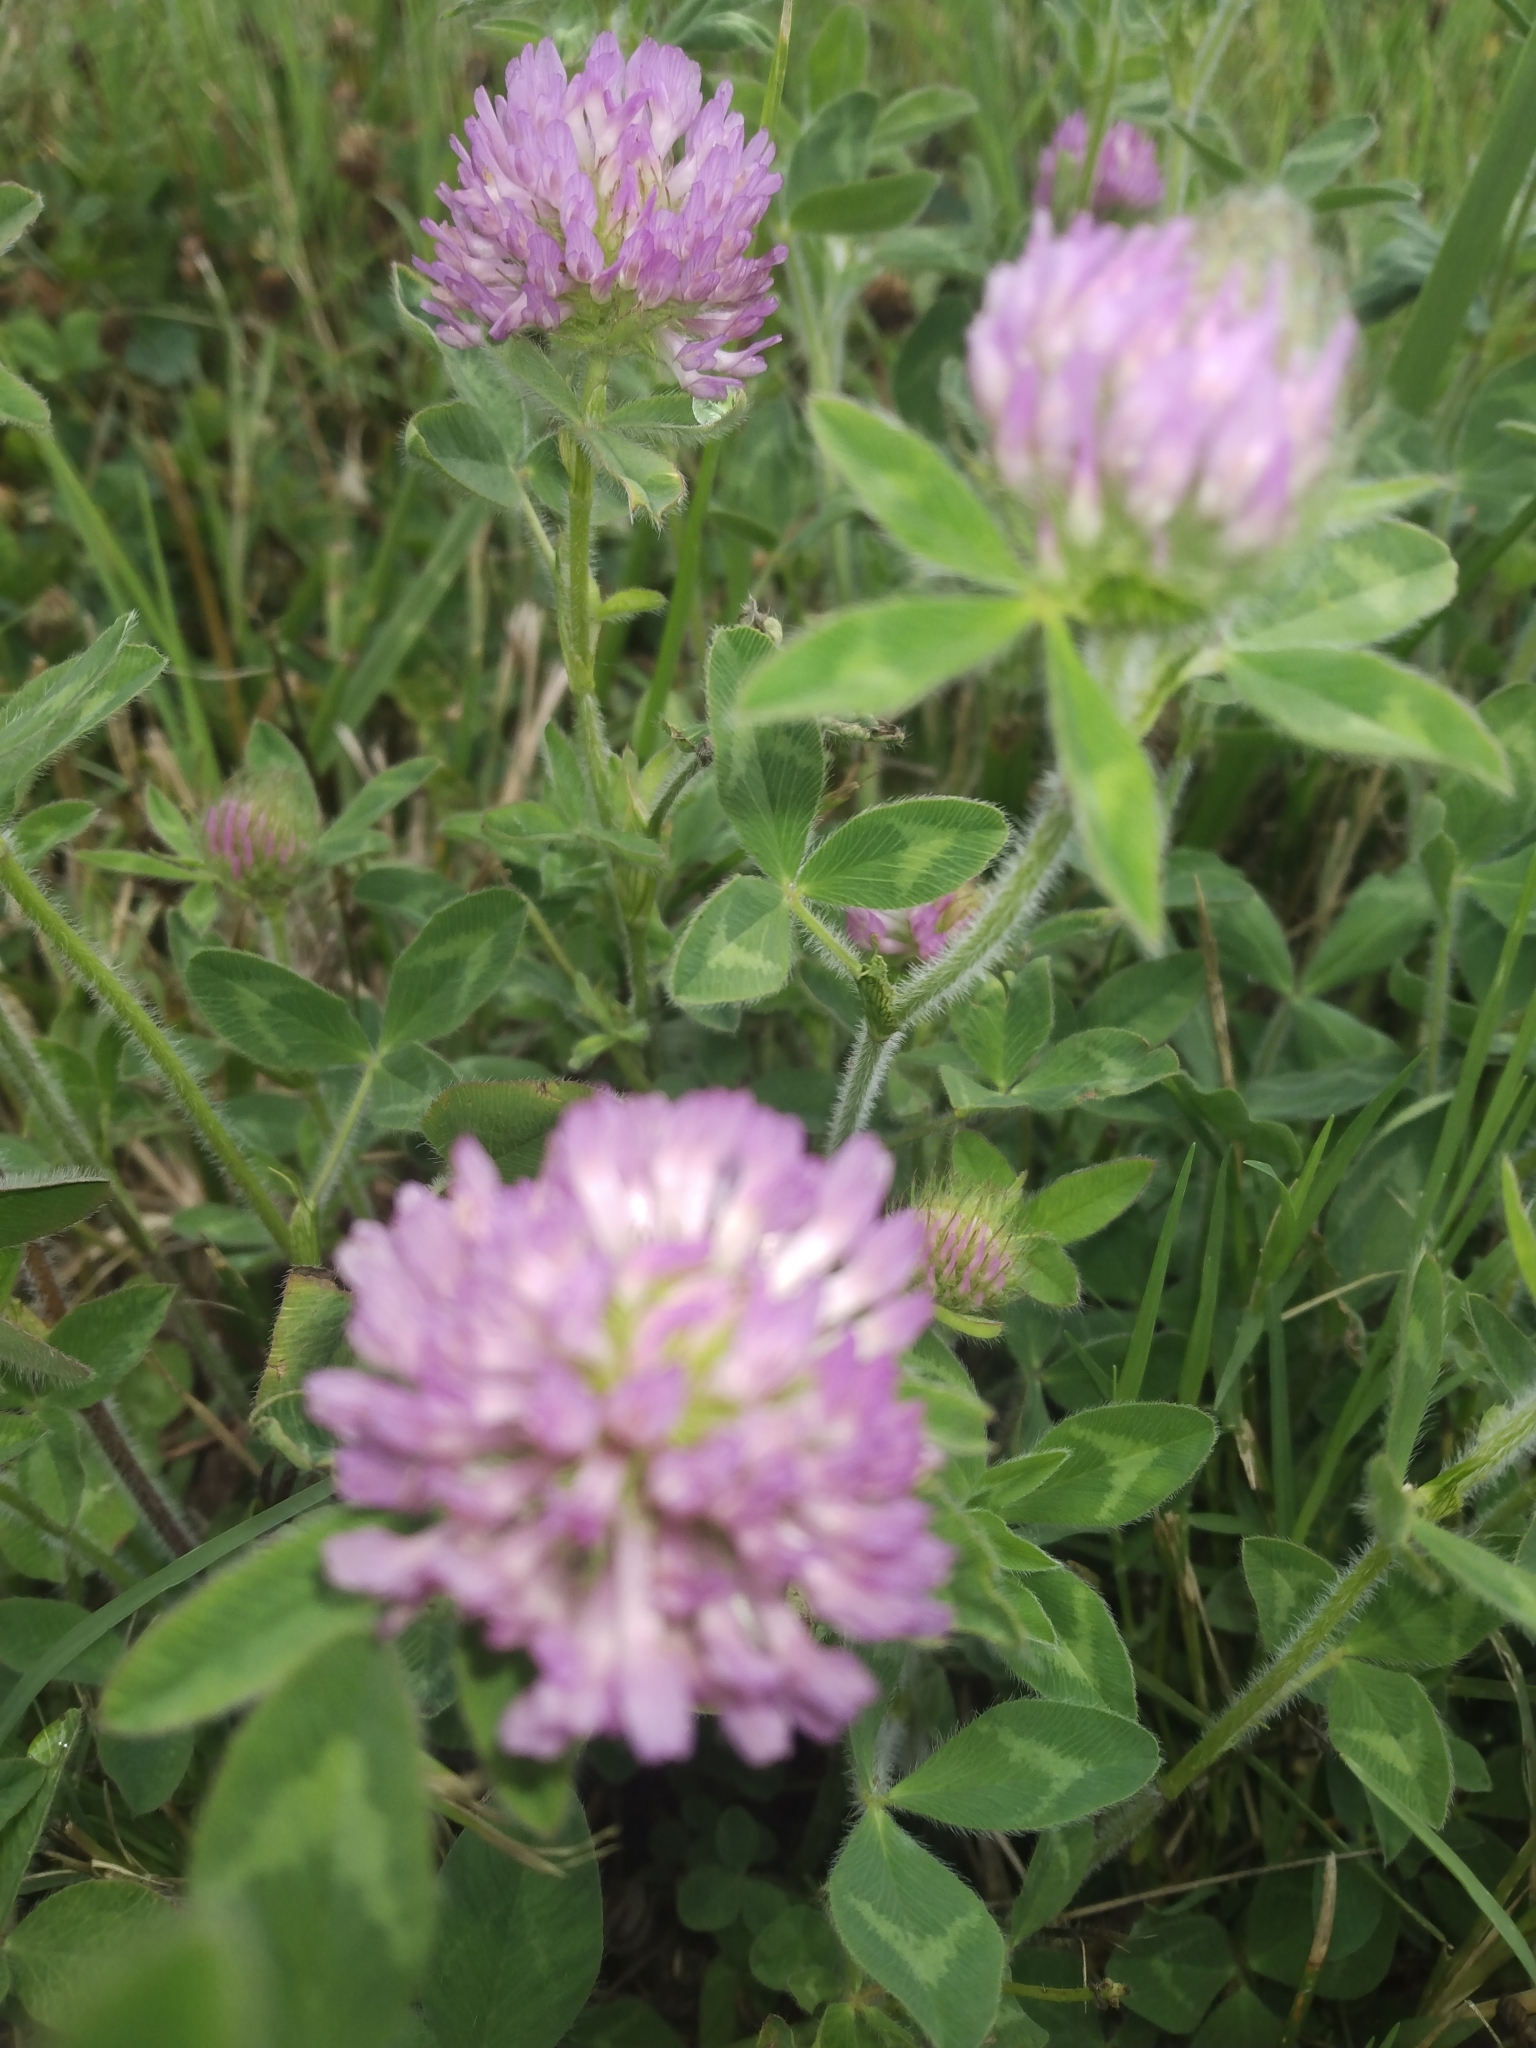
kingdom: Plantae
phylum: Tracheophyta
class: Magnoliopsida
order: Fabales
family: Fabaceae
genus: Trifolium
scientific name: Trifolium pratense
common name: Red clover
